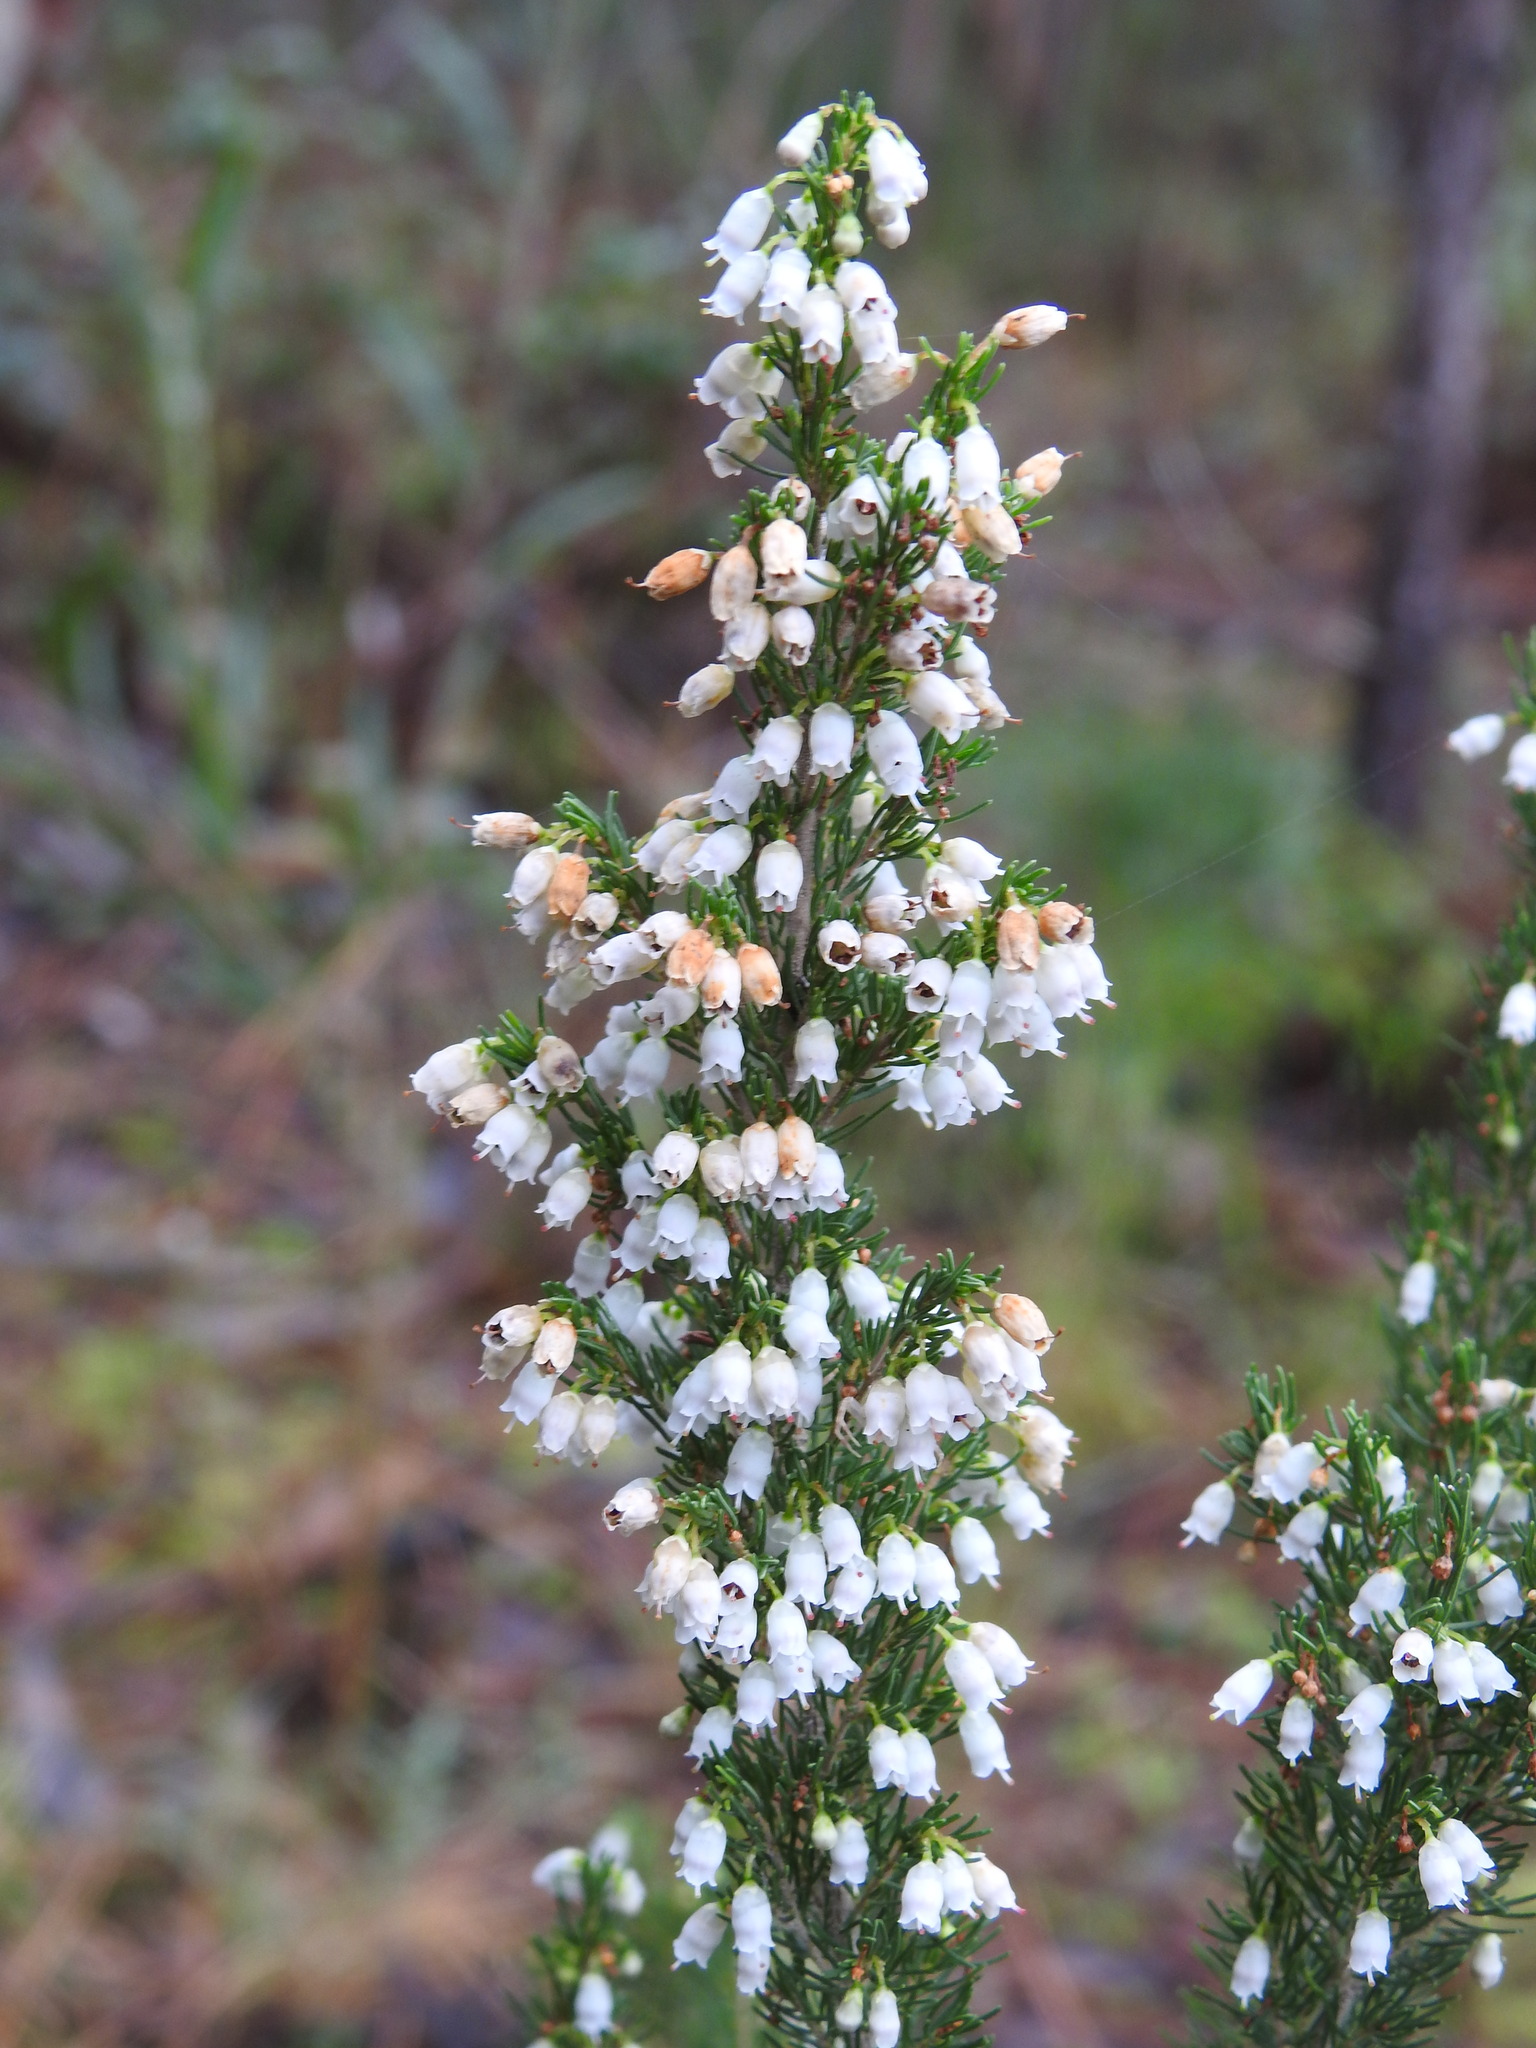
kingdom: Plantae
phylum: Tracheophyta
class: Magnoliopsida
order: Ericales
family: Ericaceae
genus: Erica
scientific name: Erica lusitanica
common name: Spanish heath
